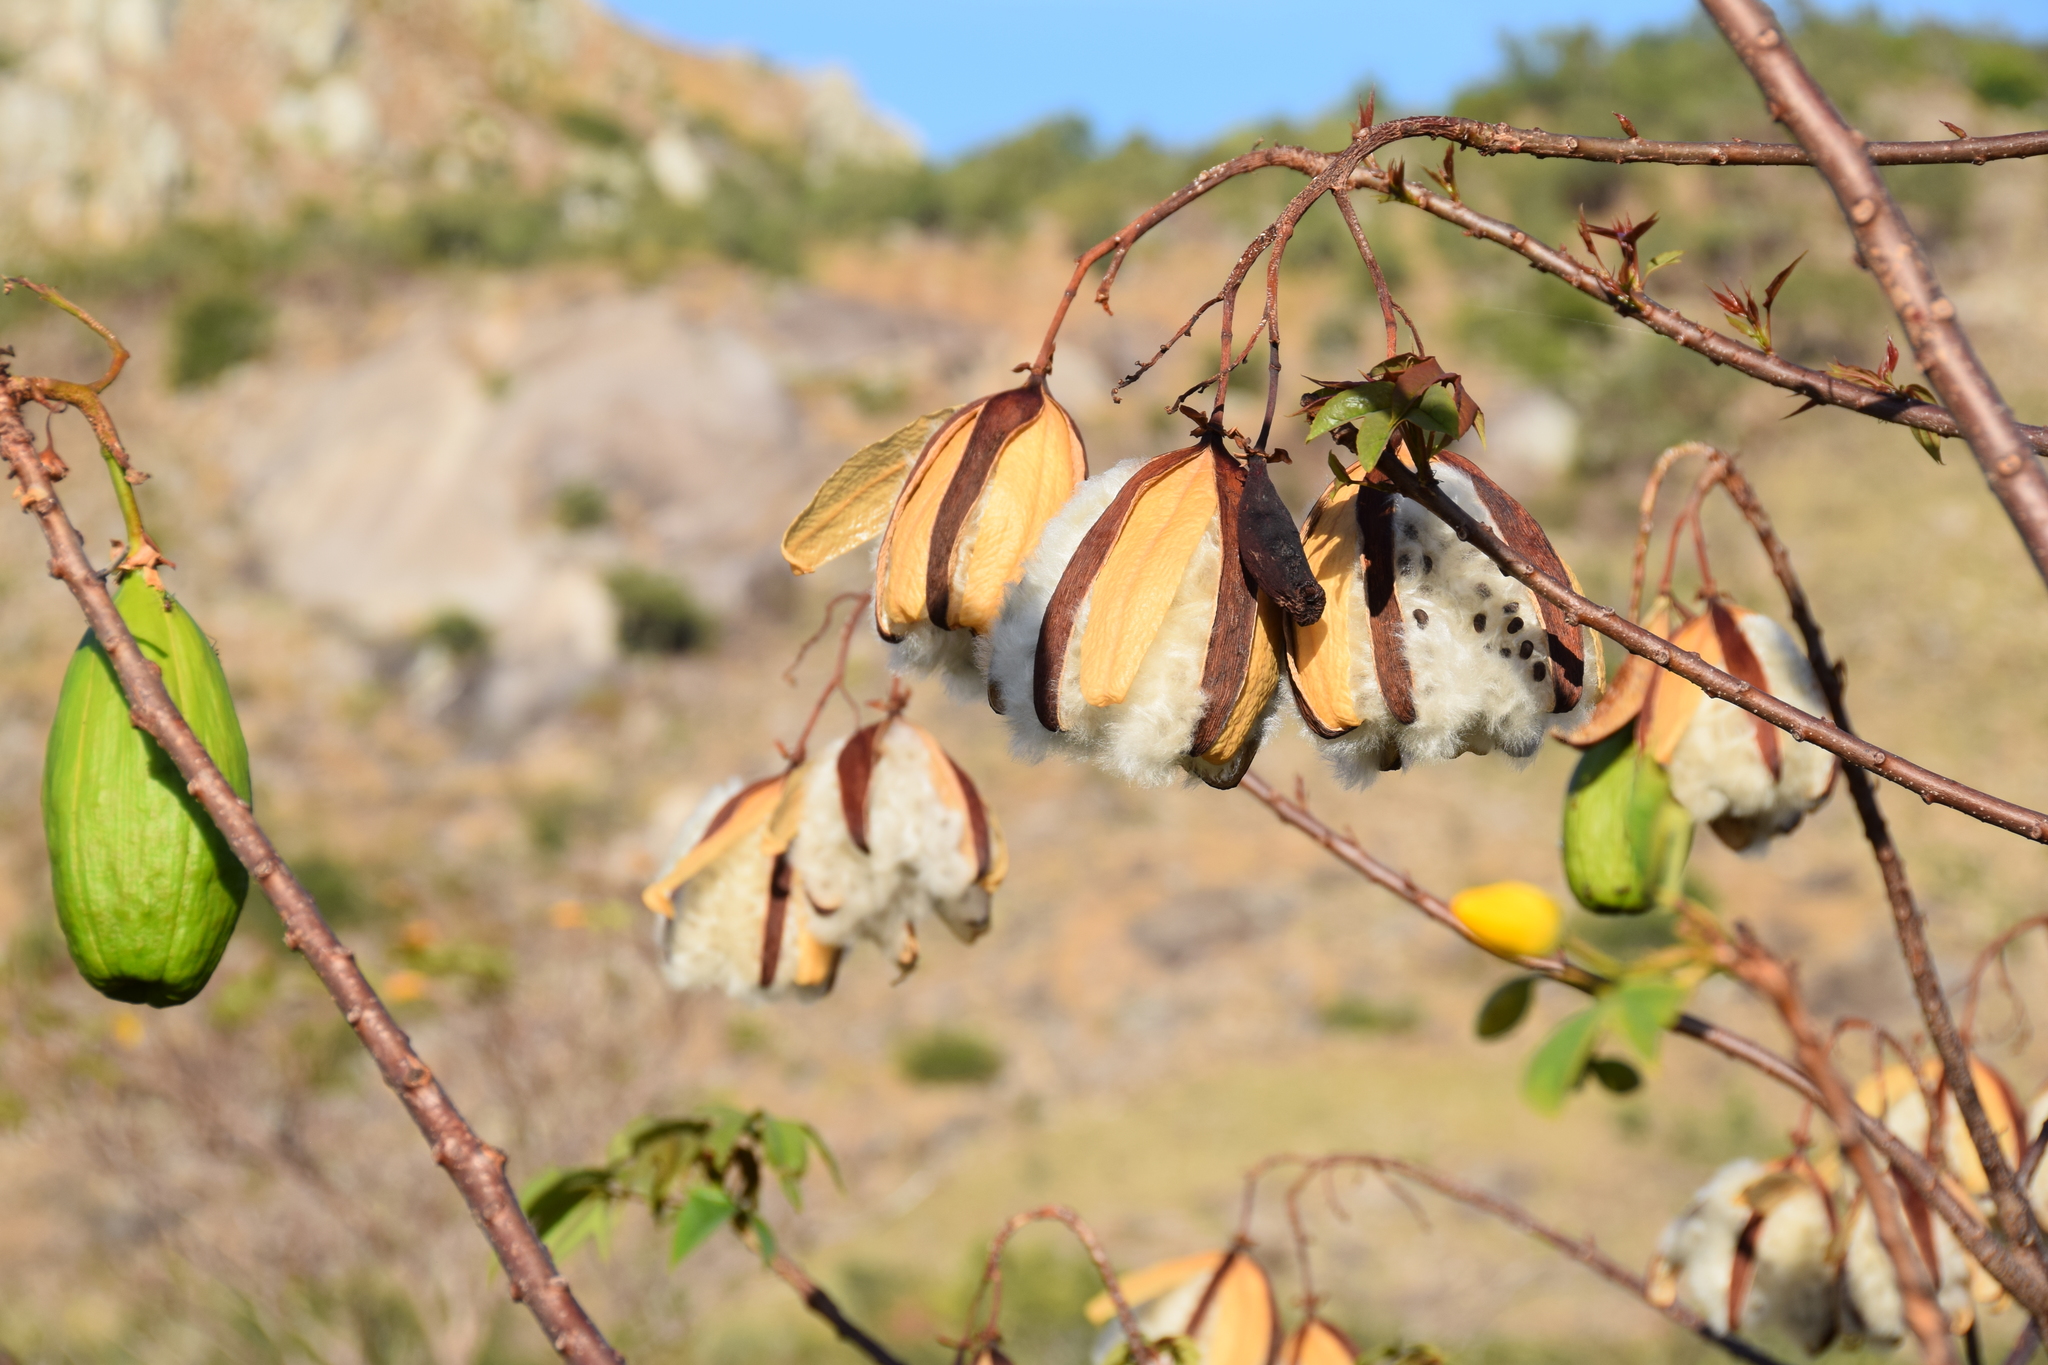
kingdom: Plantae
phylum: Tracheophyta
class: Magnoliopsida
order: Malvales
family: Cochlospermaceae
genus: Cochlospermum
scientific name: Cochlospermum gillivraei
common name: Cottontree
